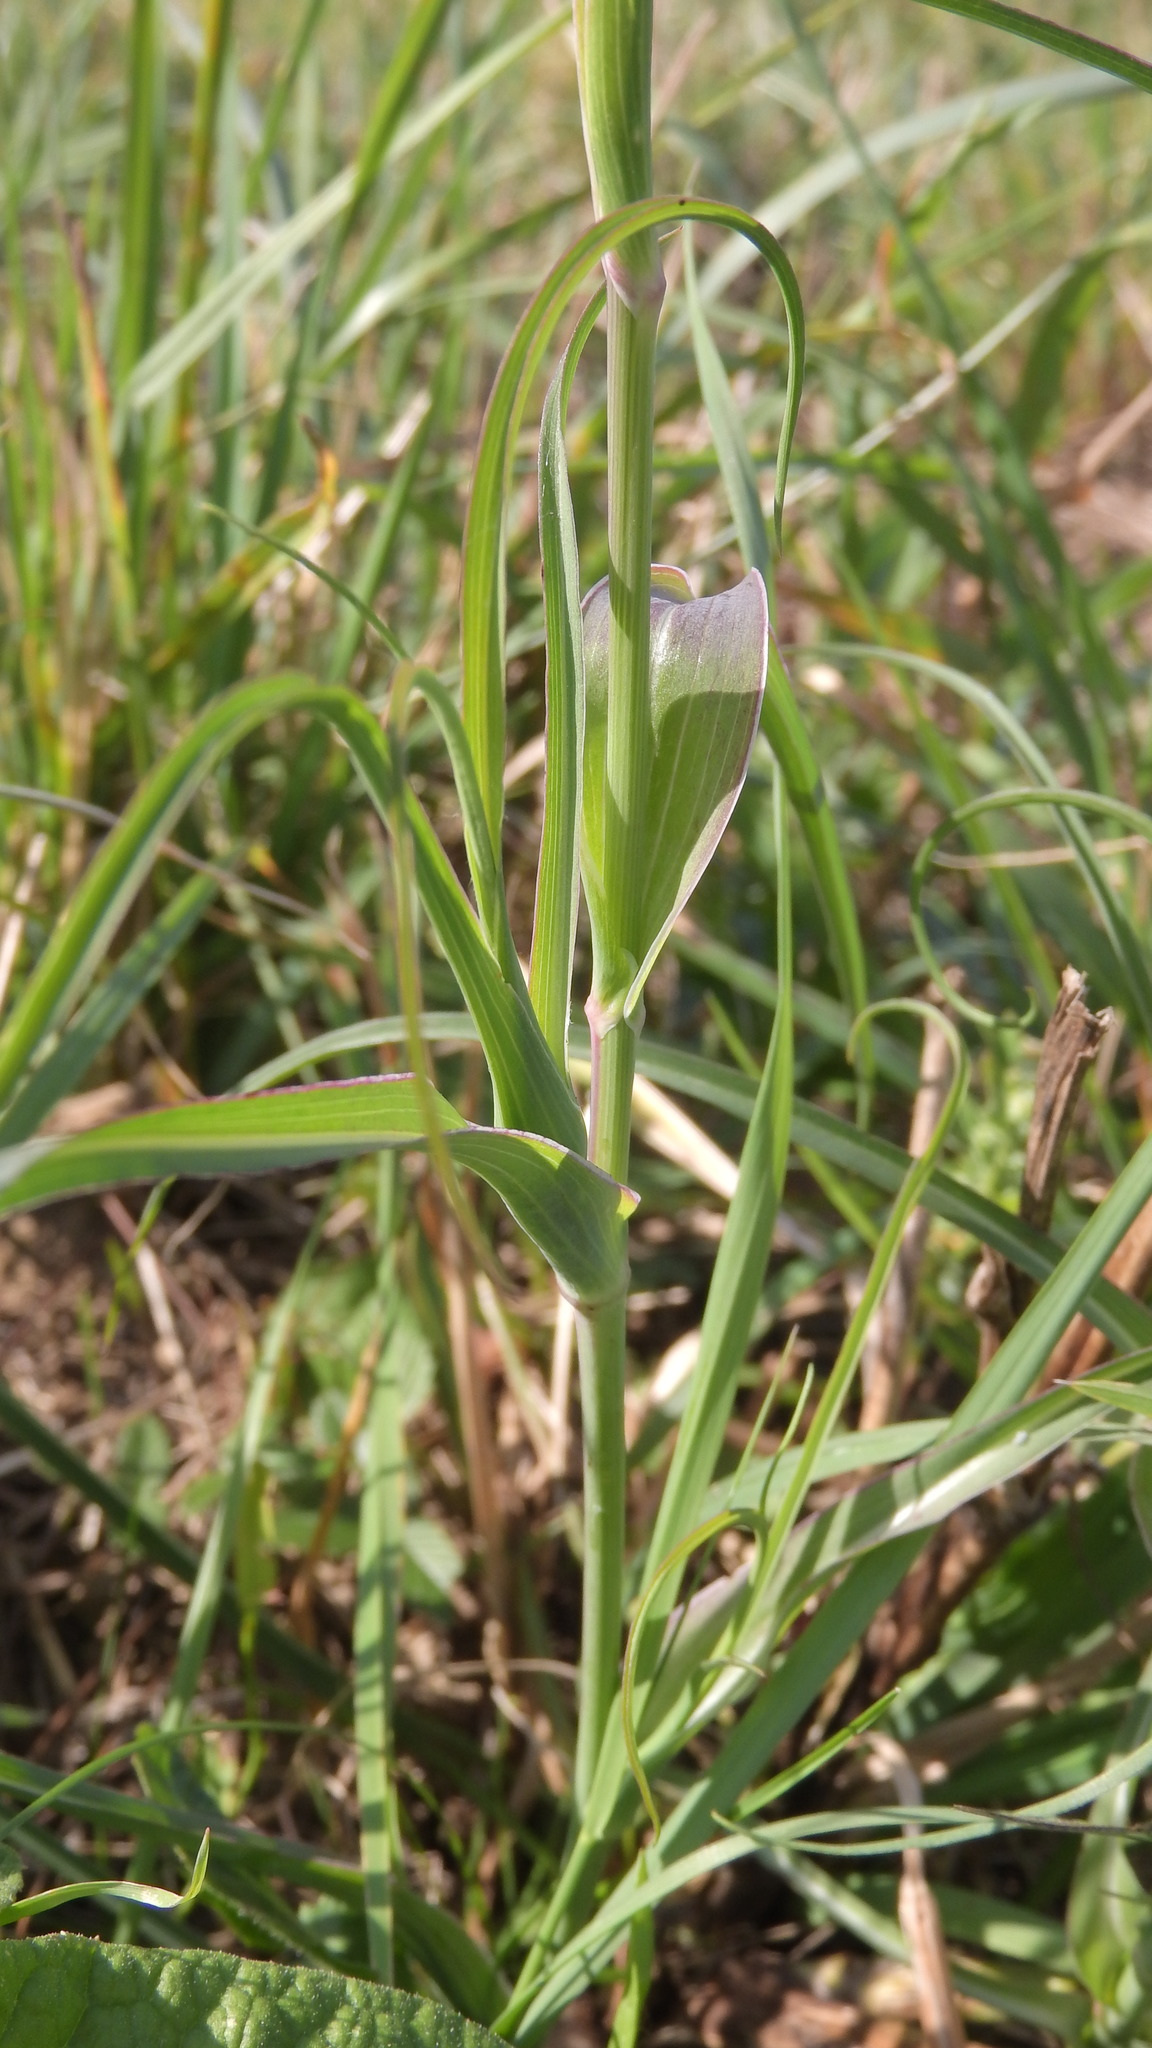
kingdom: Plantae
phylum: Tracheophyta
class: Magnoliopsida
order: Asterales
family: Asteraceae
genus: Tragopogon
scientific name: Tragopogon orientalis
